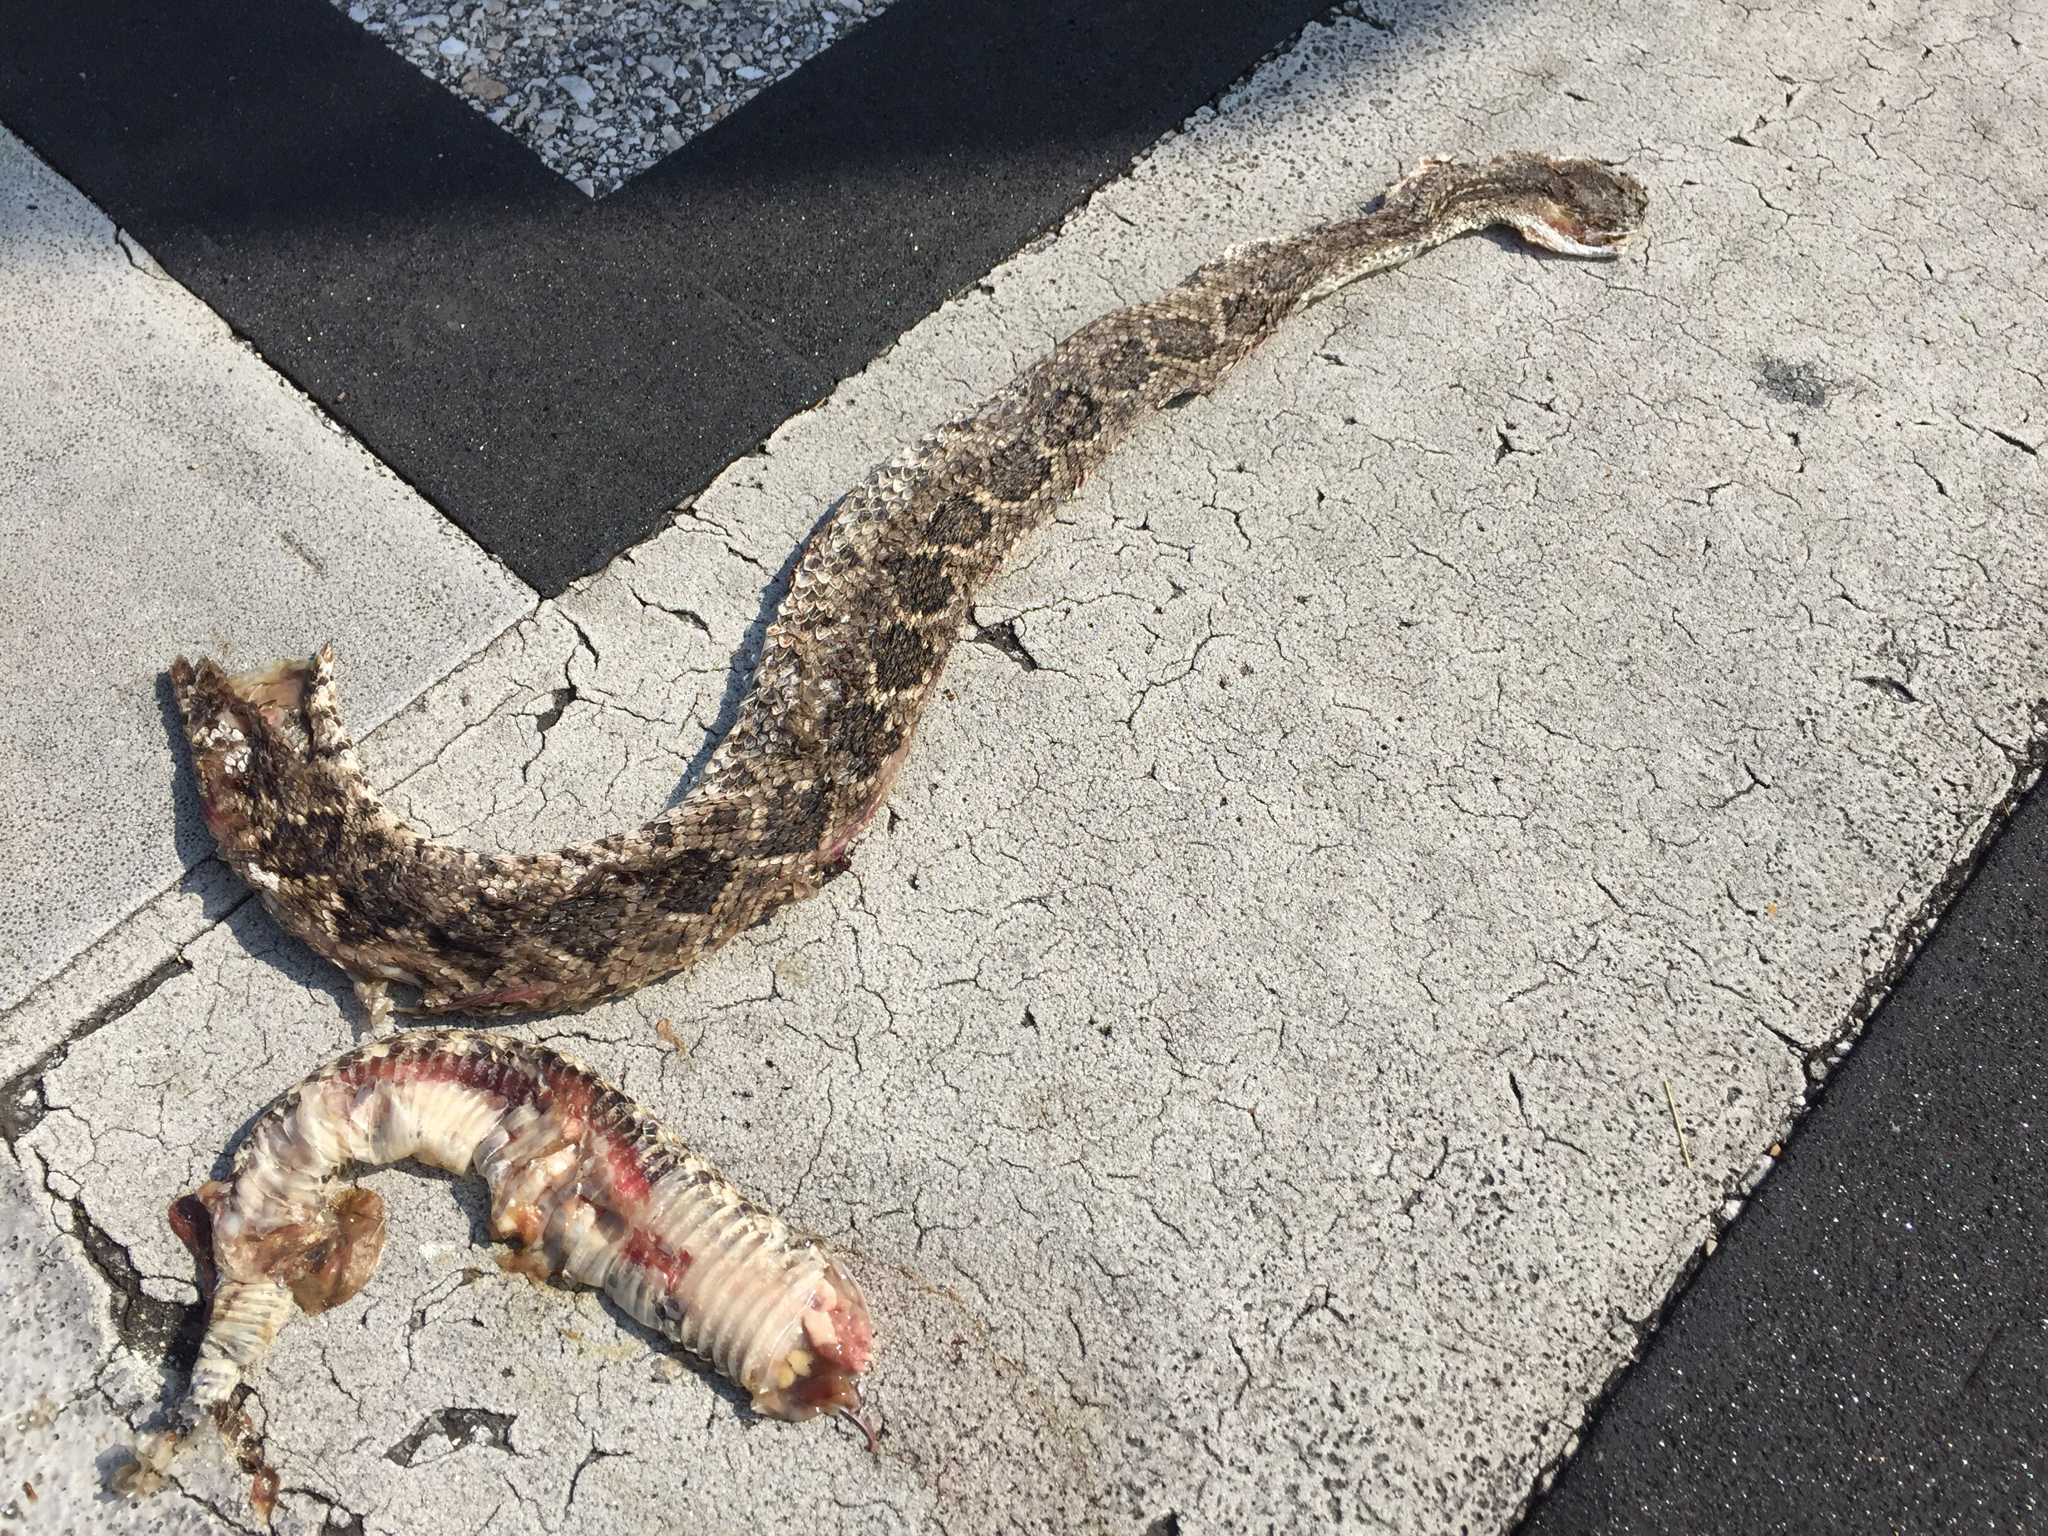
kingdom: Animalia
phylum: Chordata
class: Squamata
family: Viperidae
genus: Crotalus
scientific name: Crotalus atrox
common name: Western diamond-backed rattlesnake
